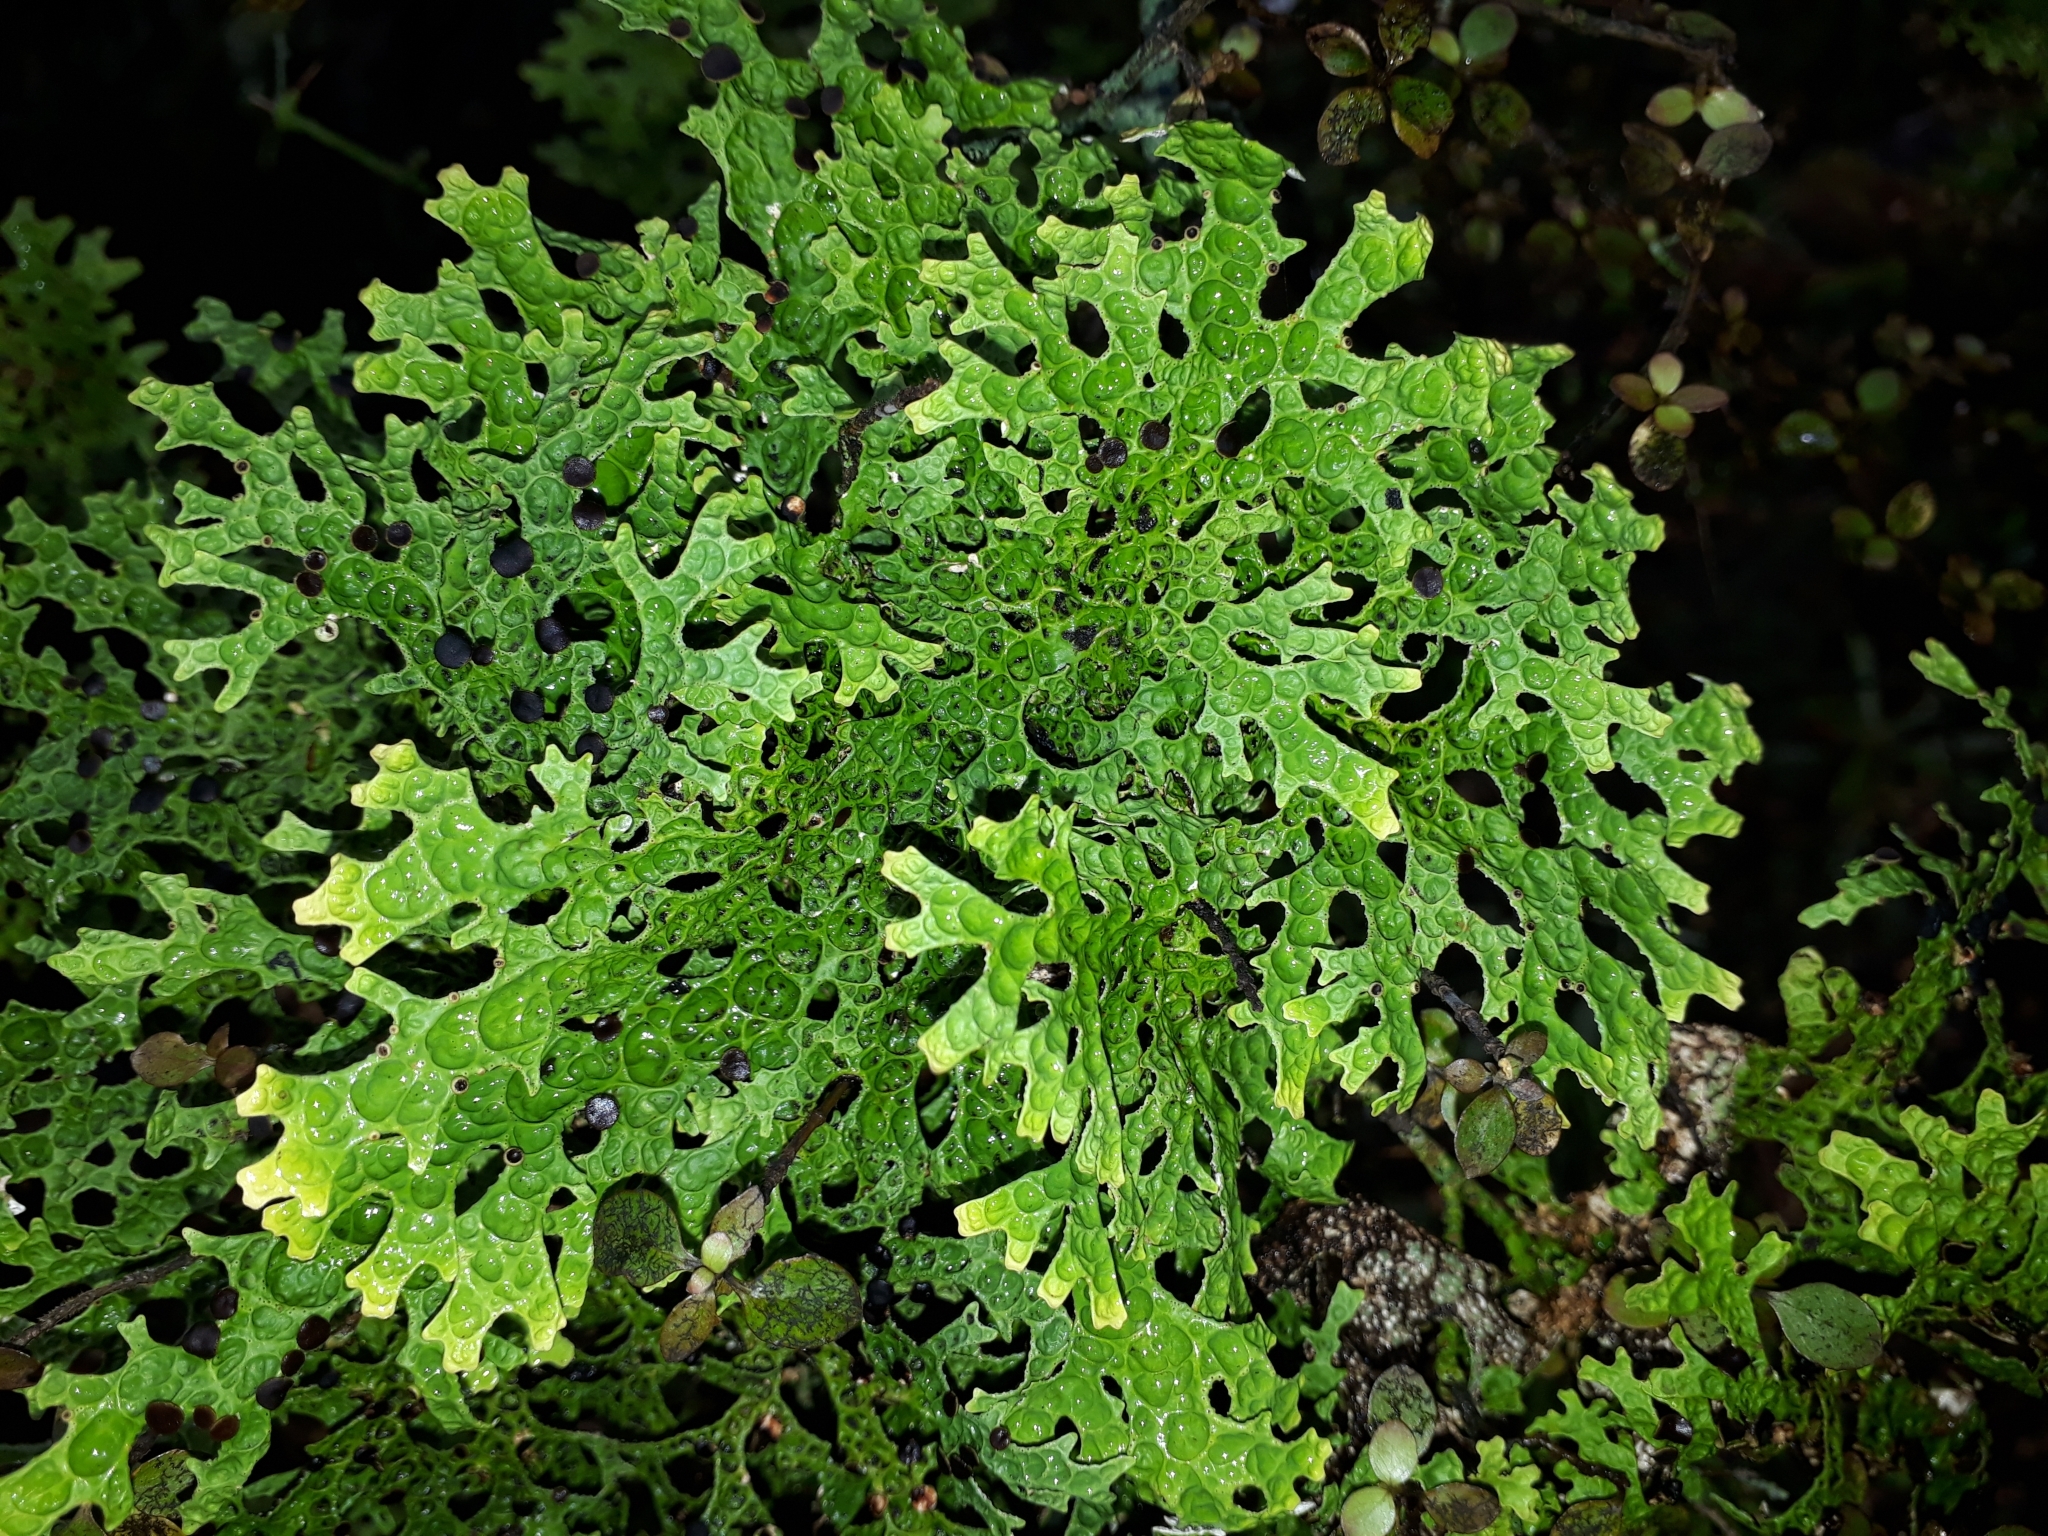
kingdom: Fungi
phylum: Ascomycota
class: Lecanoromycetes
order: Peltigerales
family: Lobariaceae
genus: Pseudocyphellaria
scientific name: Pseudocyphellaria faveolata
